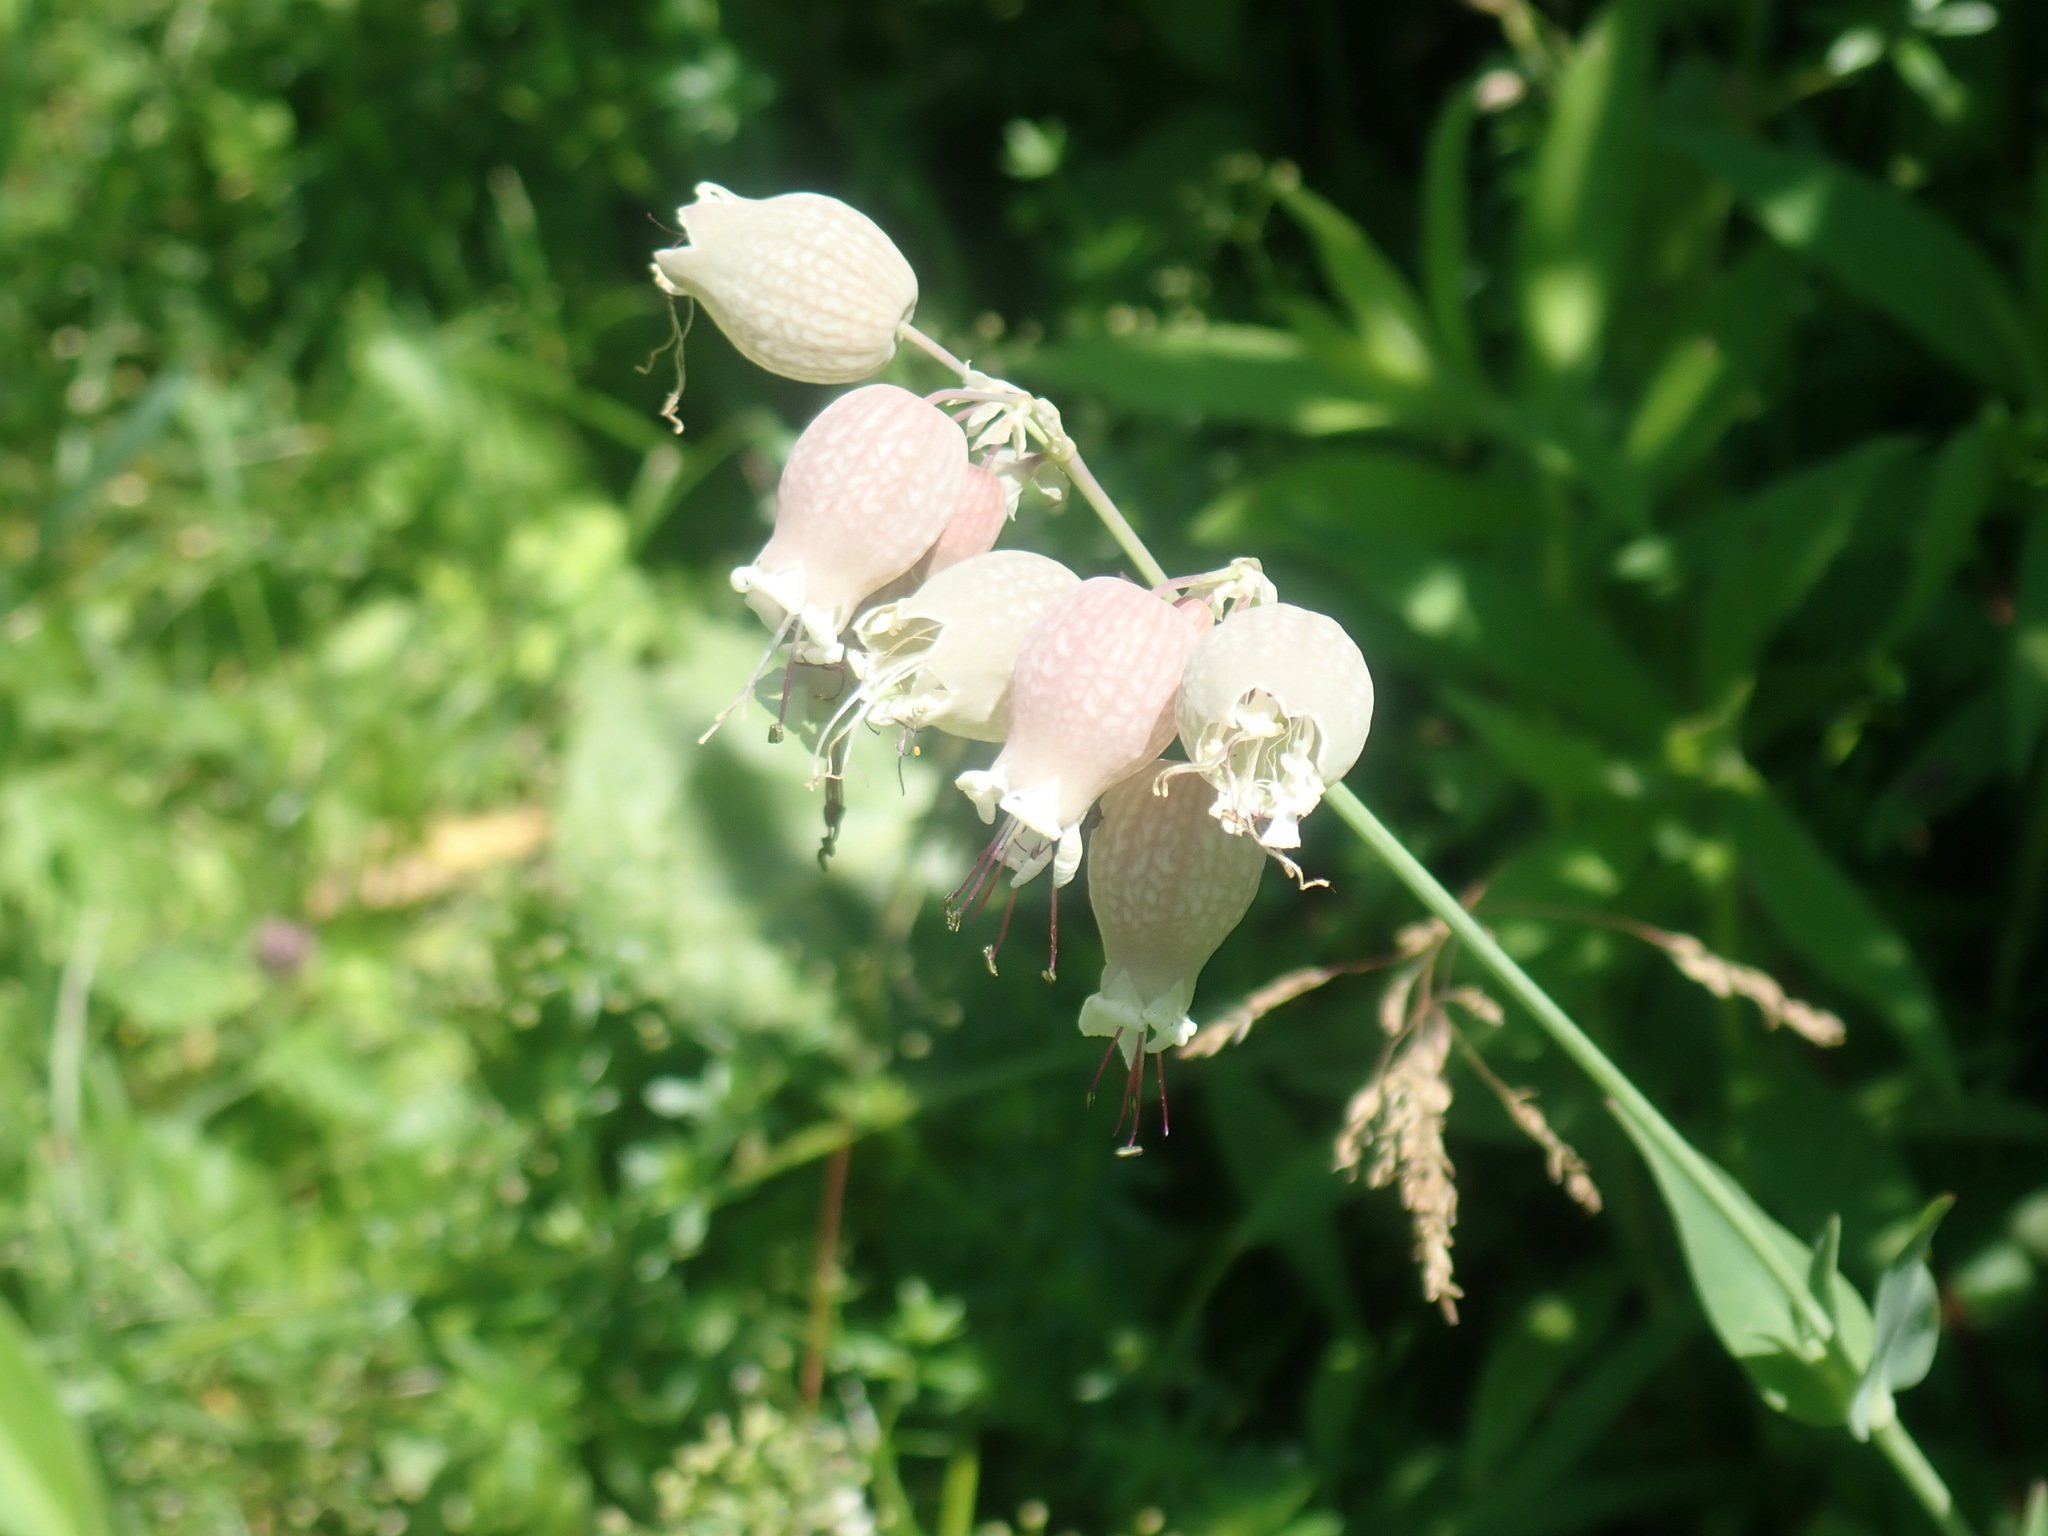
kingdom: Plantae
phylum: Tracheophyta
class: Magnoliopsida
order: Caryophyllales
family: Caryophyllaceae
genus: Silene
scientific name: Silene vulgaris
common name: Bladder campion
